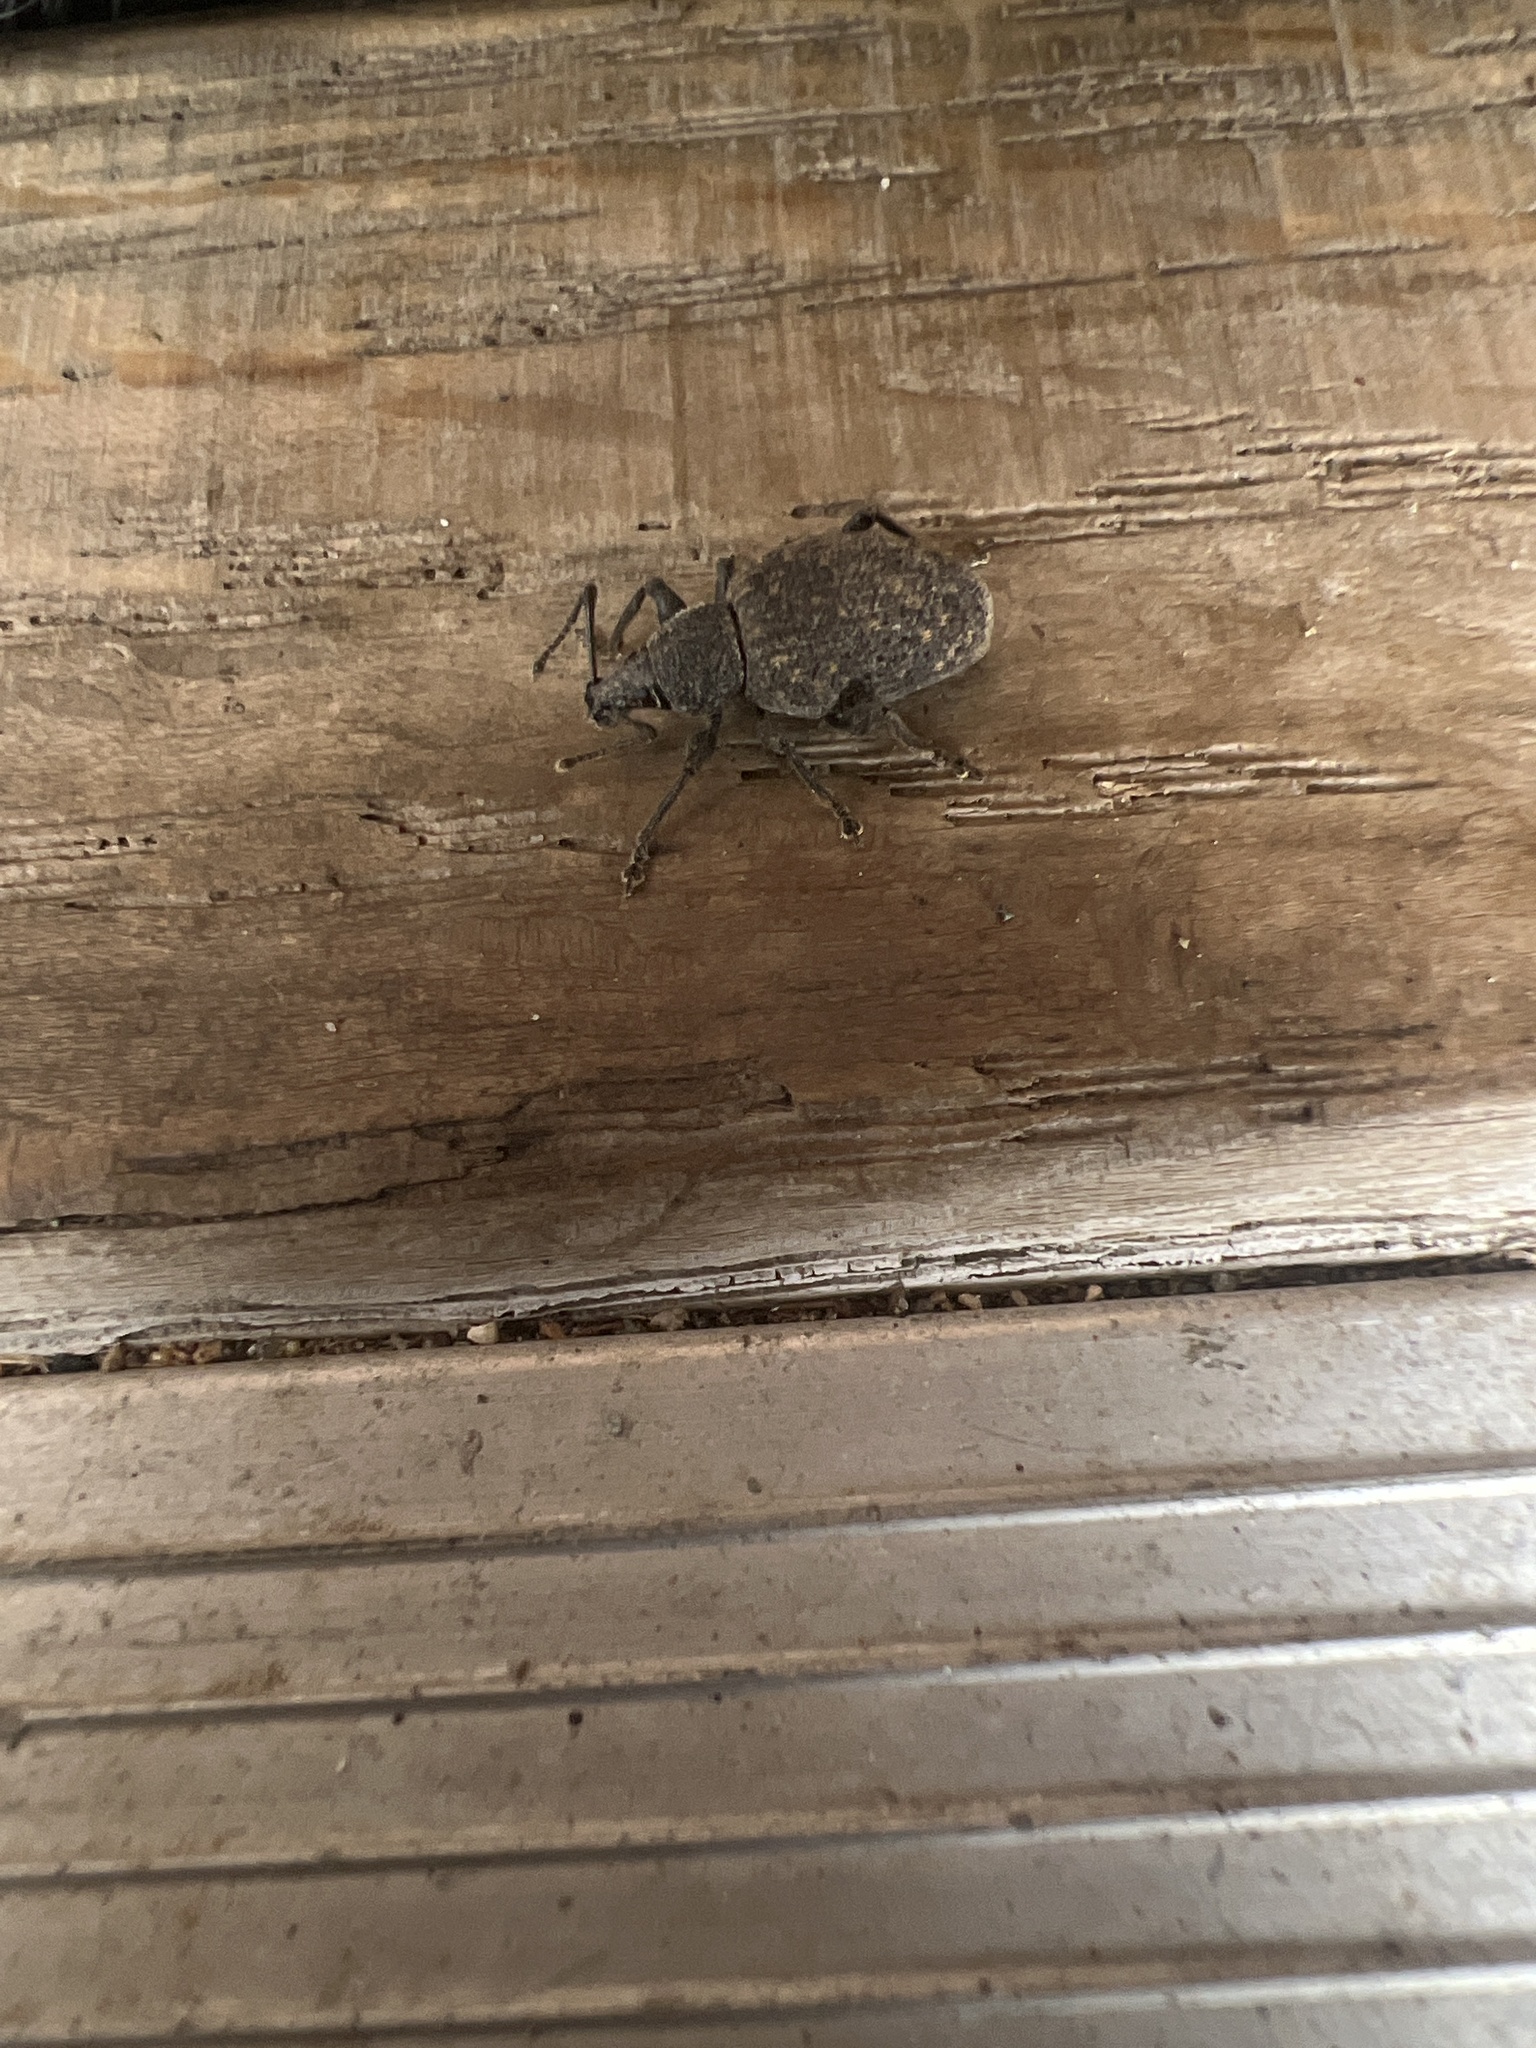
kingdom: Animalia
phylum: Arthropoda
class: Insecta
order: Coleoptera
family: Curculionidae
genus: Otiorhynchus
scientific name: Otiorhynchus sulcatus
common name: Black vine weevil
